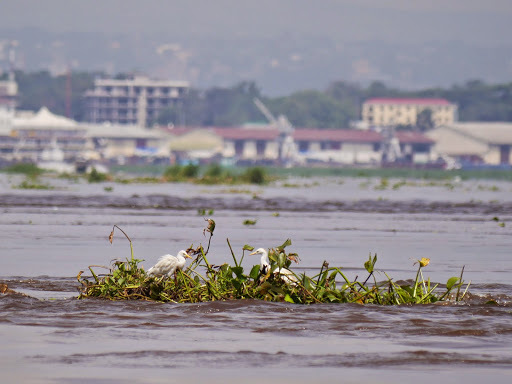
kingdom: Animalia
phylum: Chordata
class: Aves
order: Pelecaniformes
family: Ardeidae
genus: Bubulcus
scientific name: Bubulcus ibis
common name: Cattle egret
